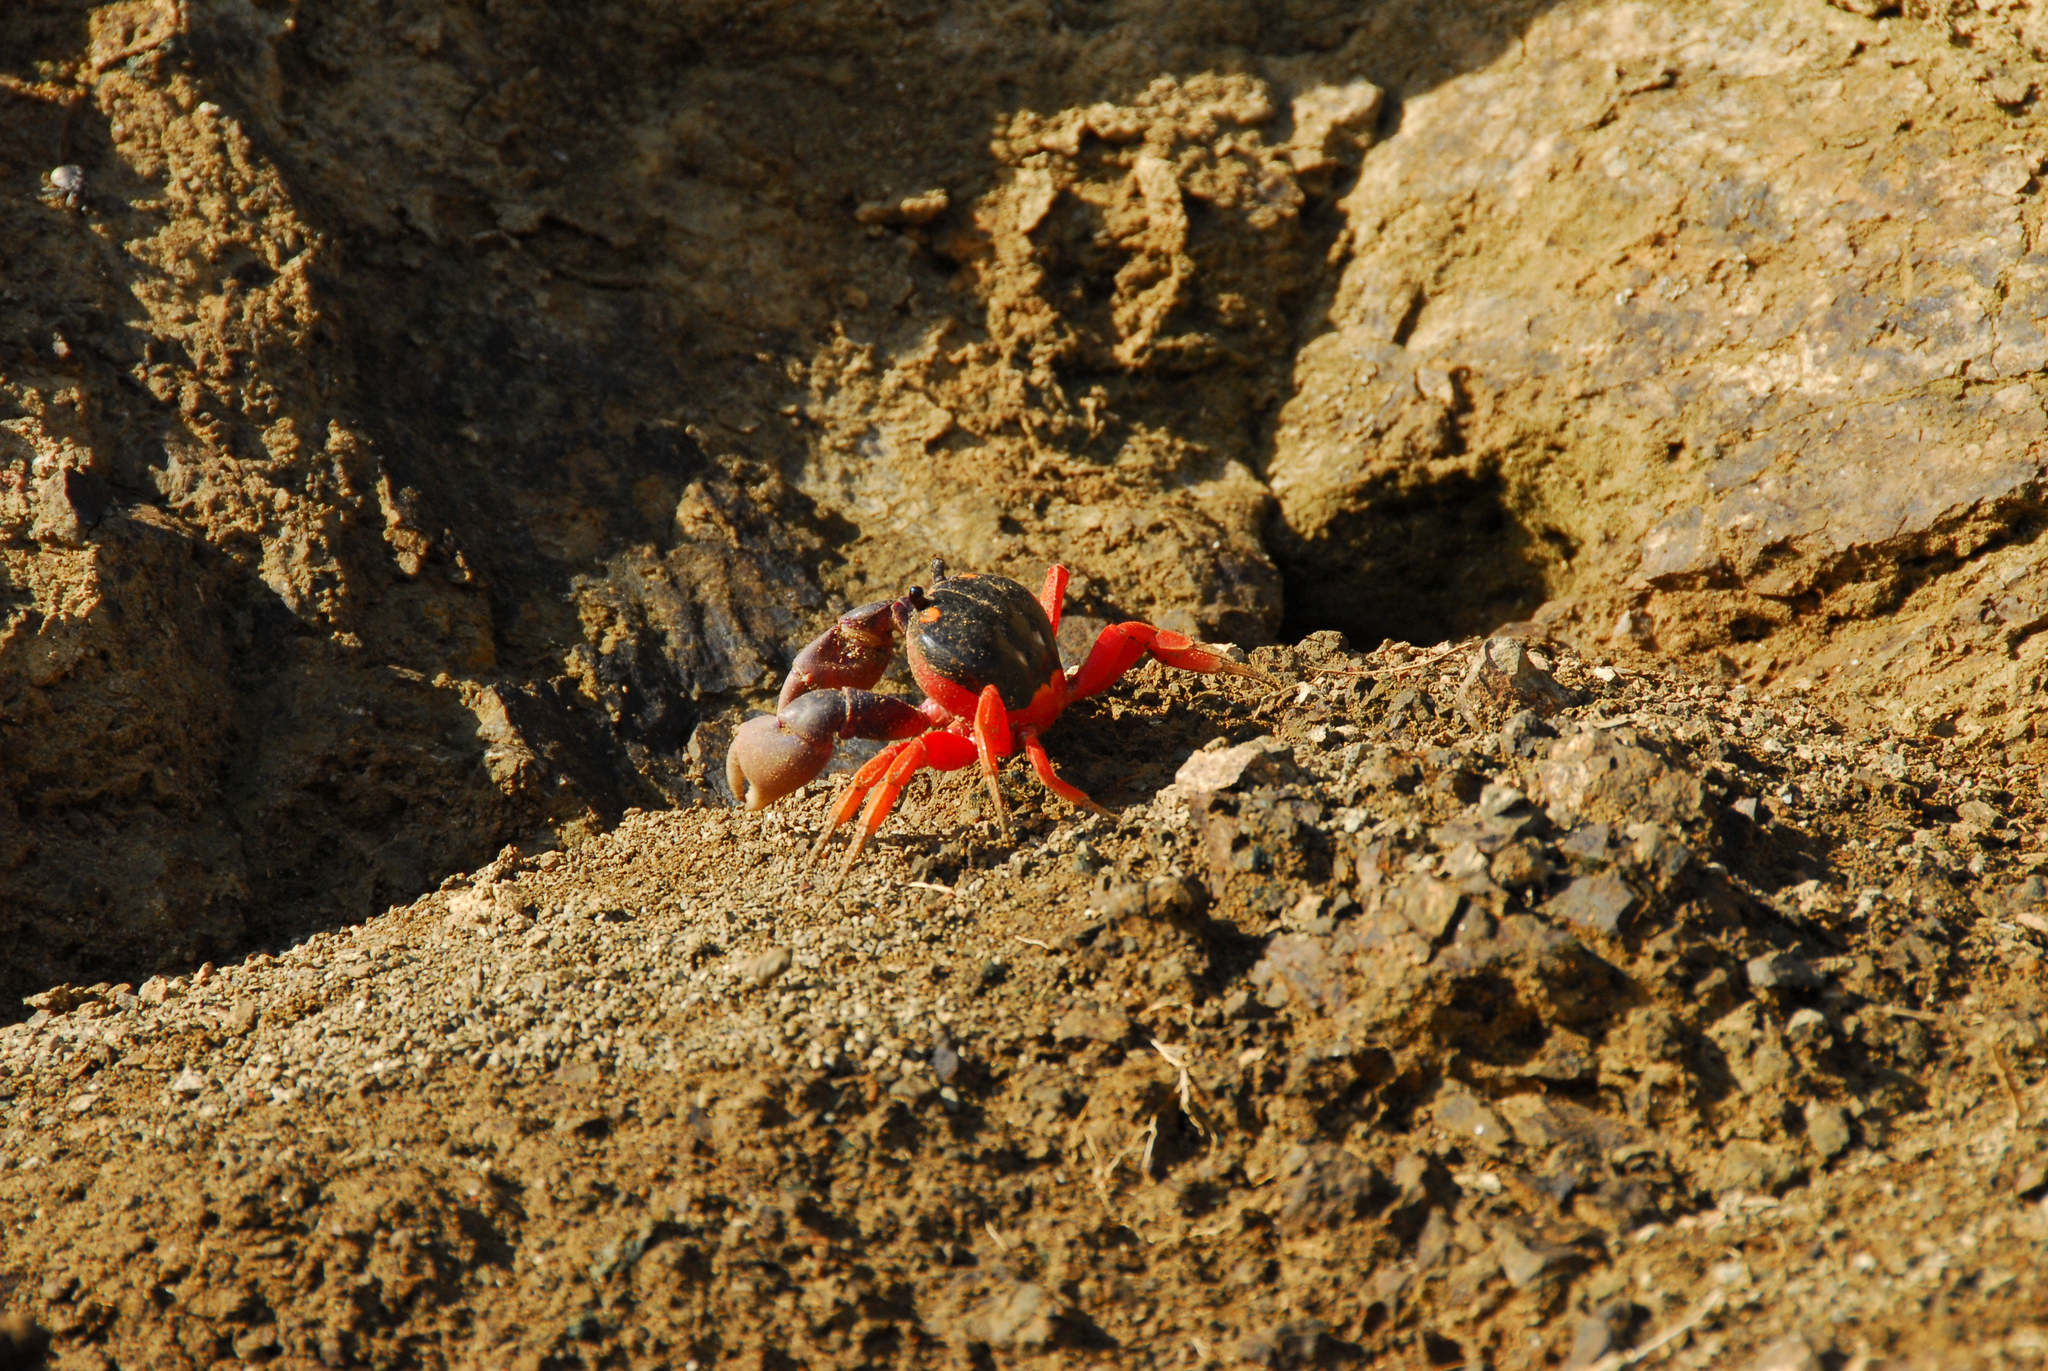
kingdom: Animalia
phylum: Arthropoda
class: Malacostraca
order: Decapoda
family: Gecarcinidae
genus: Gecarcinus
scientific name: Gecarcinus quadratus
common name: Halloween crab
